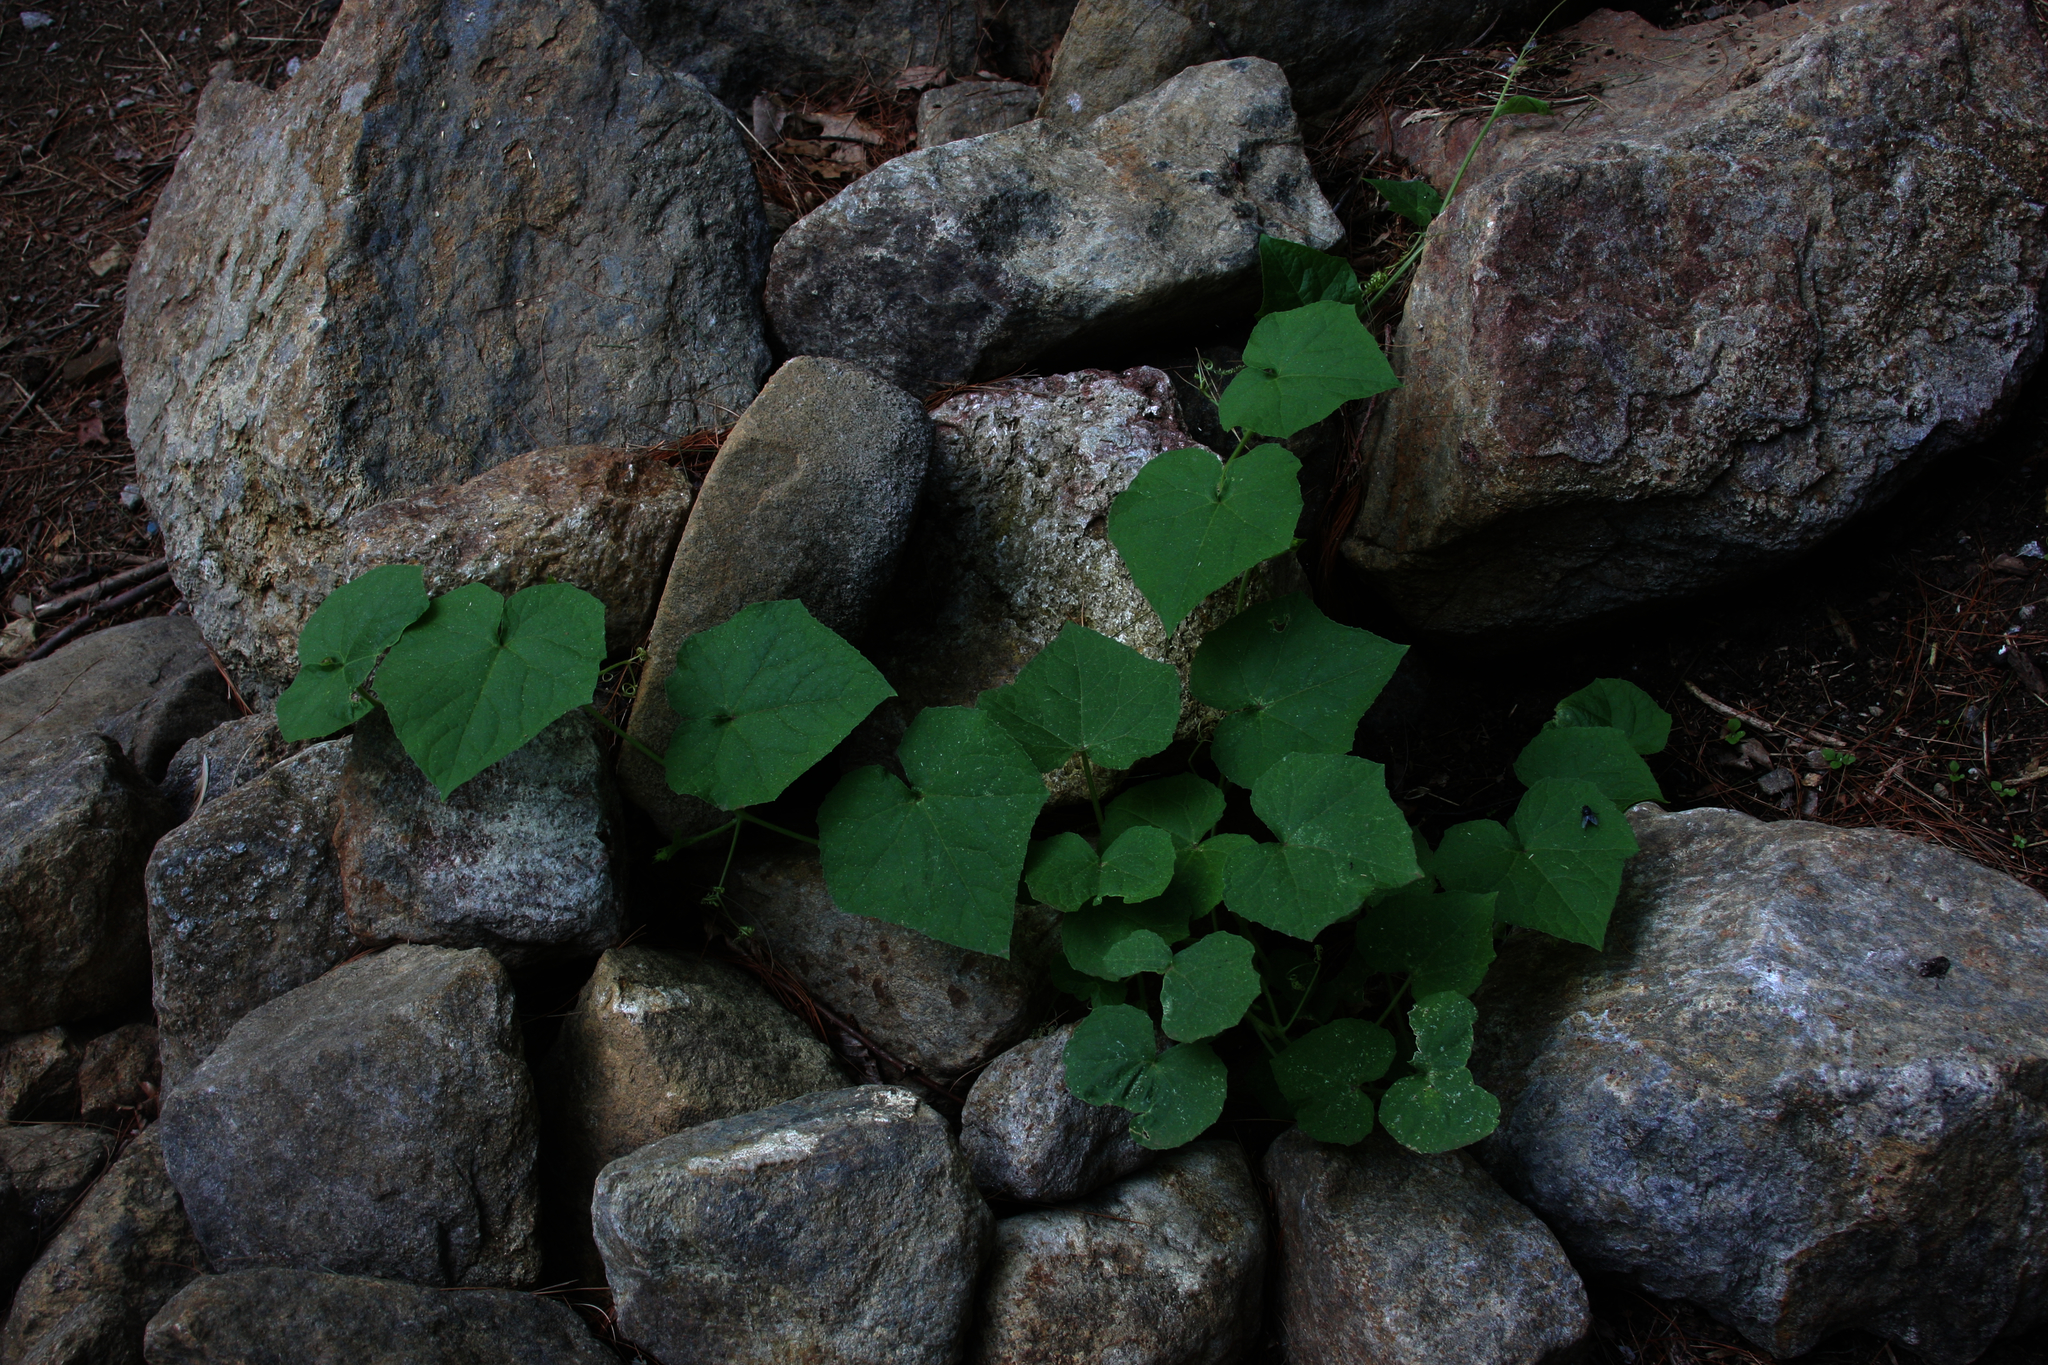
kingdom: Plantae
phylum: Tracheophyta
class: Magnoliopsida
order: Cucurbitales
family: Cucurbitaceae
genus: Sicyos
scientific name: Sicyos angulatus
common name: Angled burr cucumber
